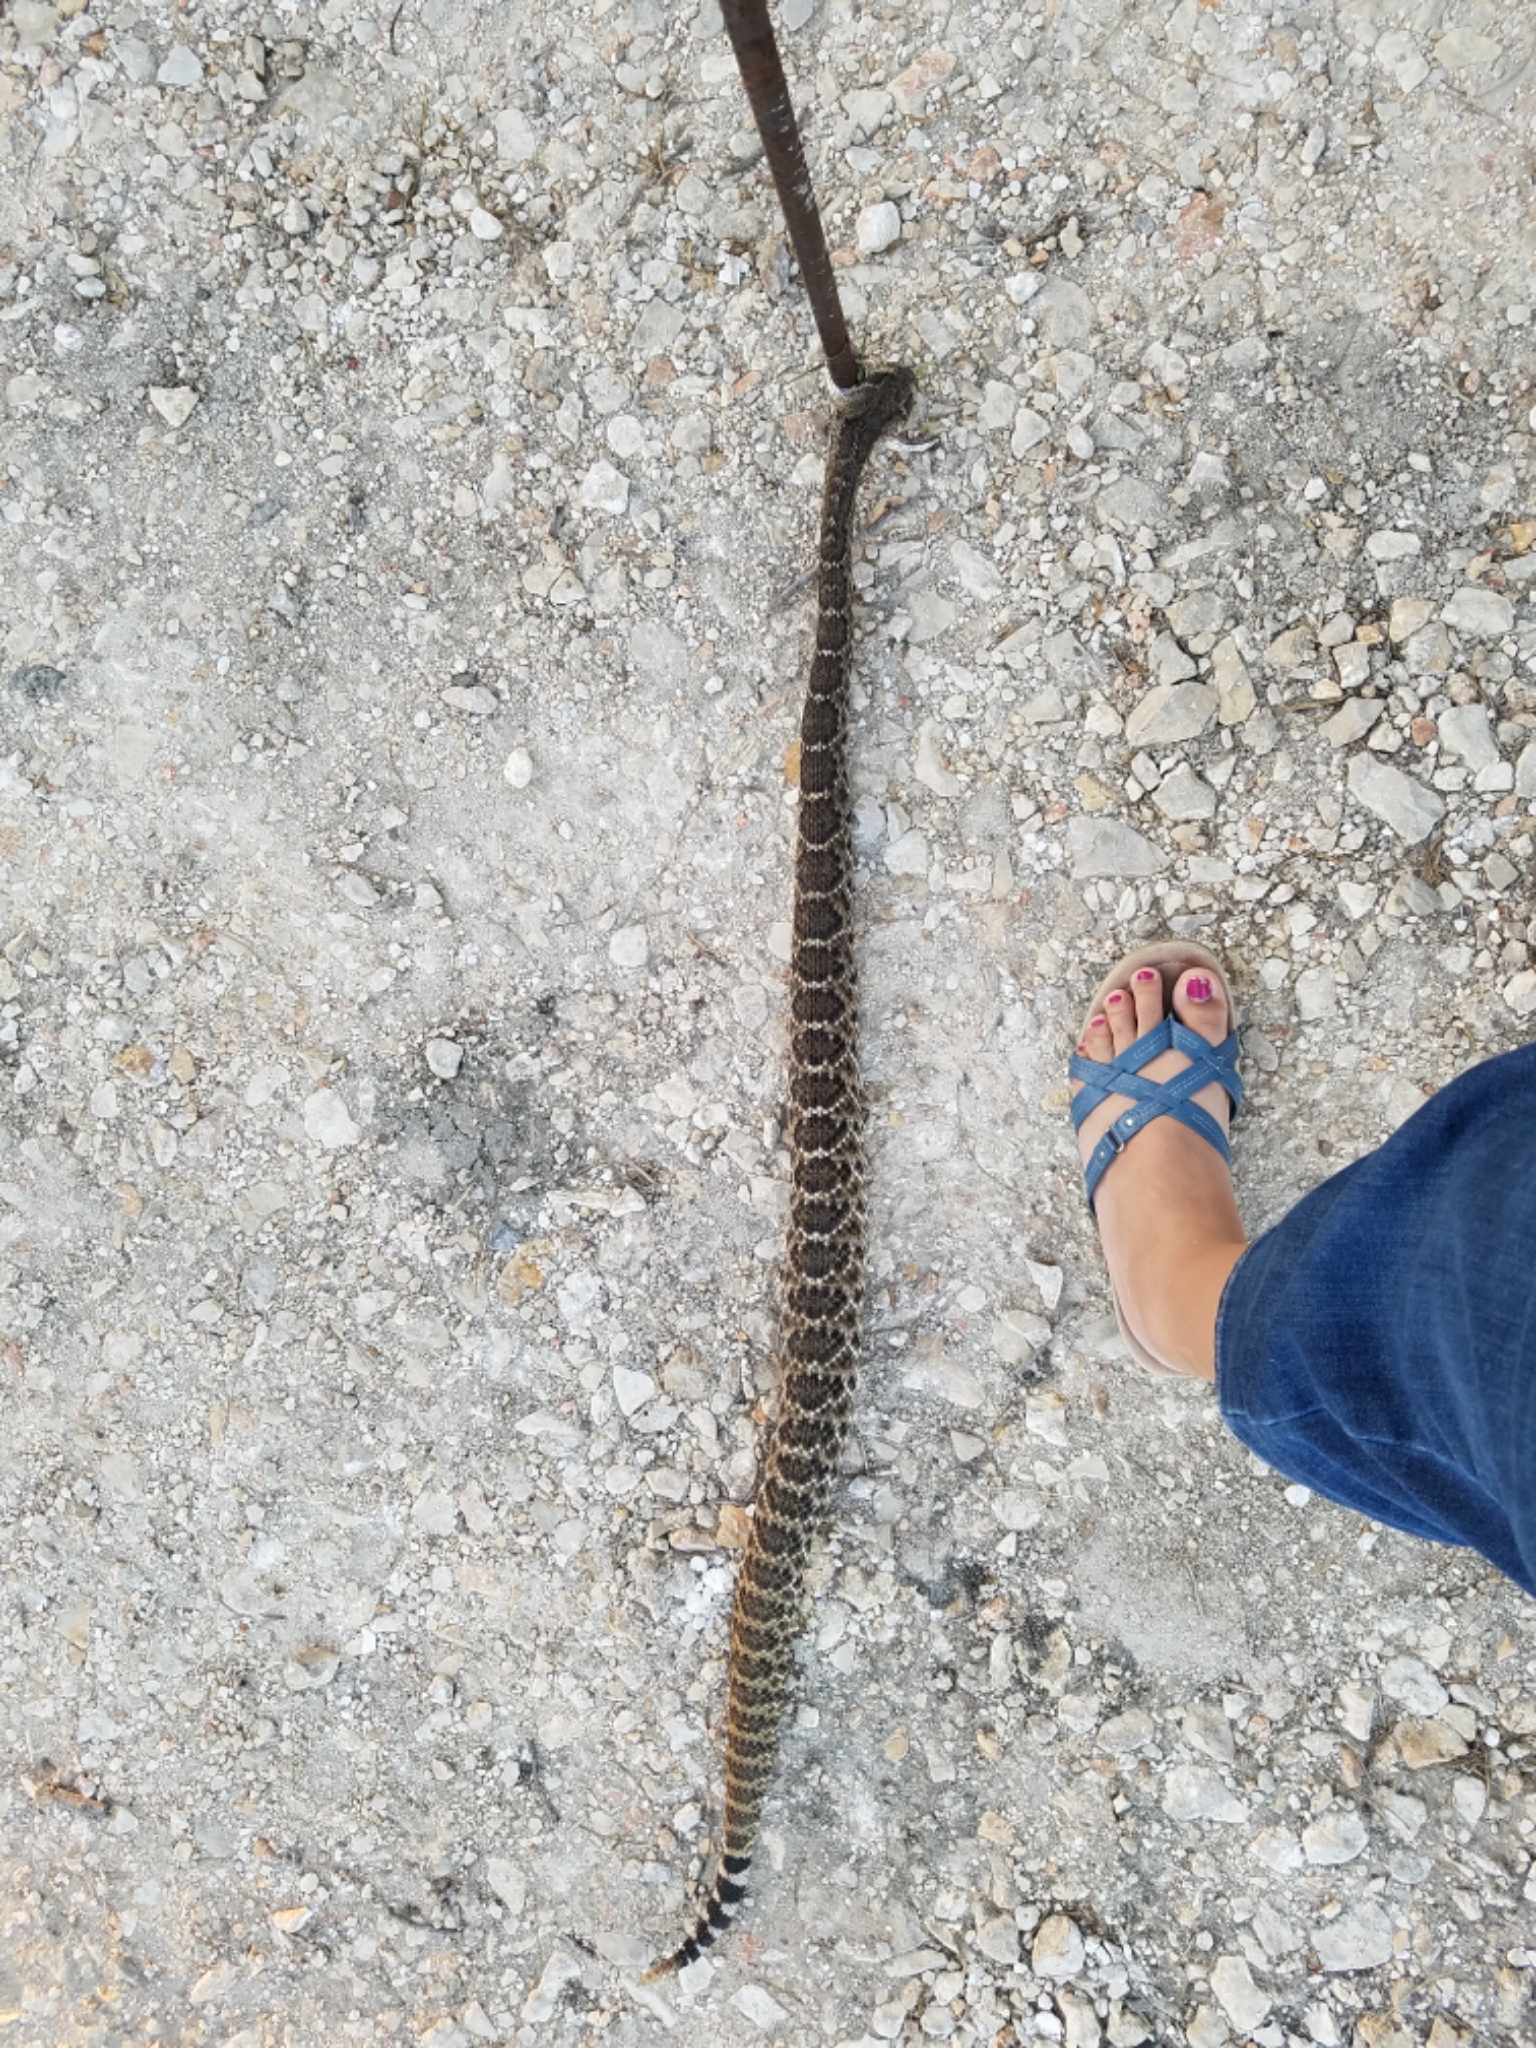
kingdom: Animalia
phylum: Chordata
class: Squamata
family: Viperidae
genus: Crotalus
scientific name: Crotalus atrox
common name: Western diamond-backed rattlesnake
